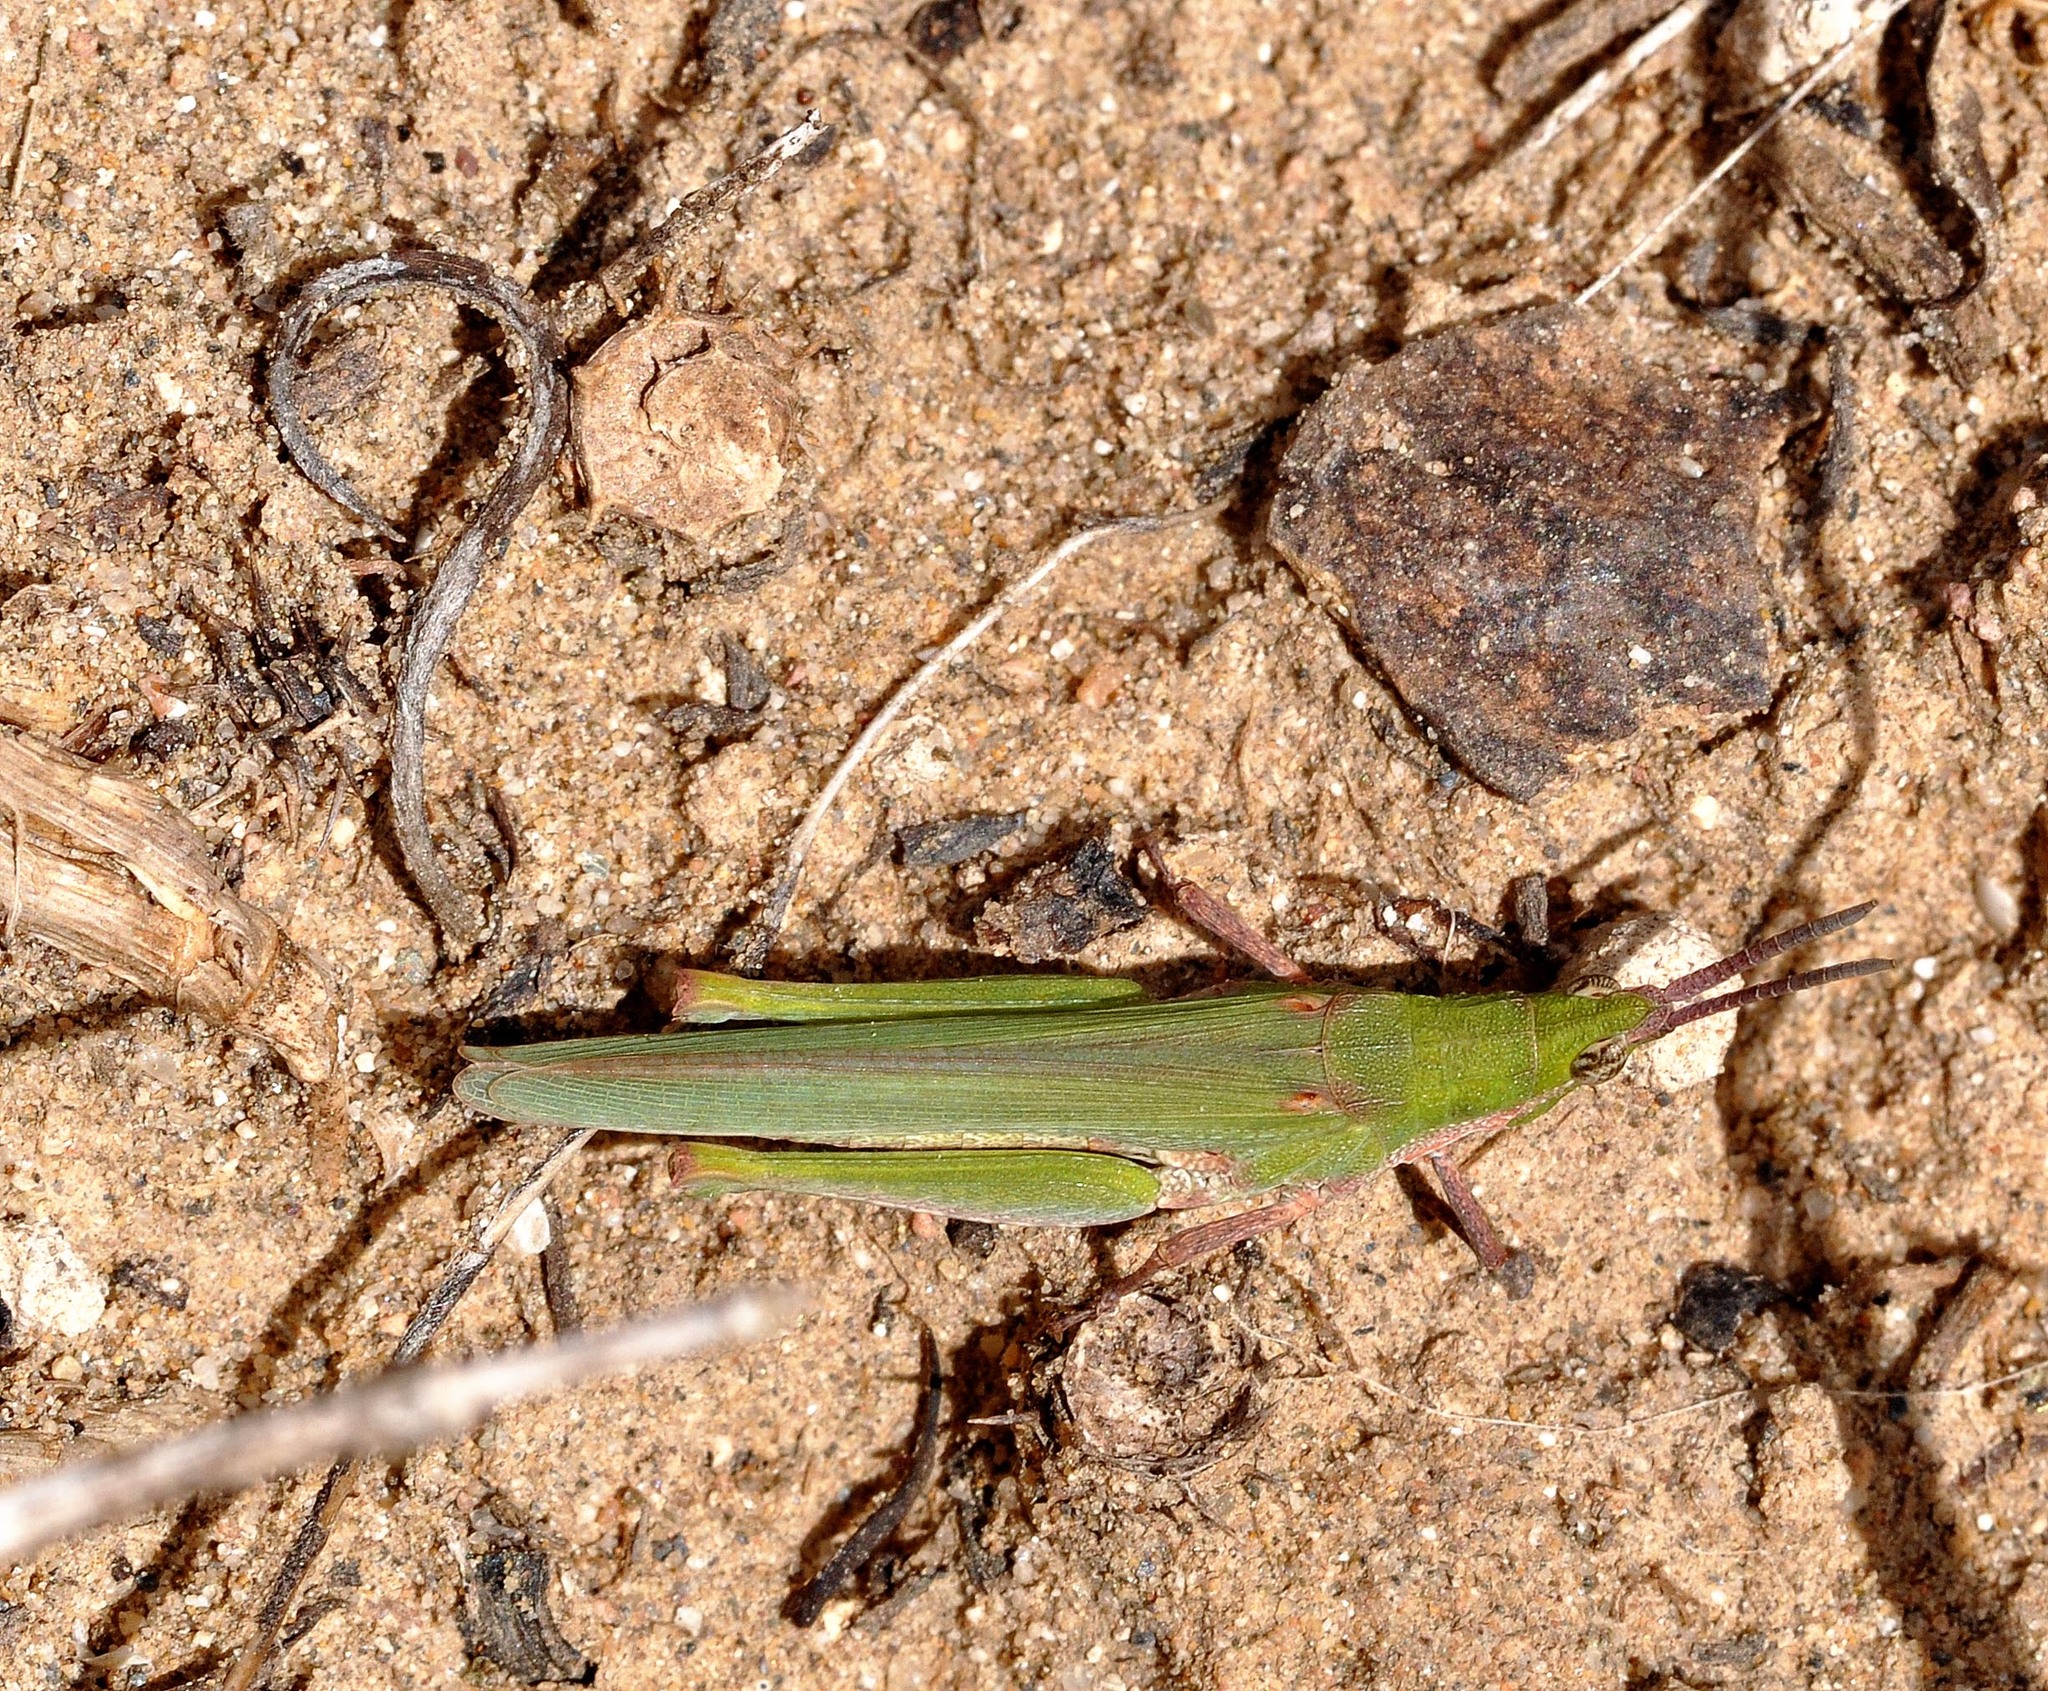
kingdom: Animalia
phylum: Arthropoda
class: Insecta
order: Orthoptera
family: Pyrgomorphidae
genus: Pyrgomorpha
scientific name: Pyrgomorpha conica
